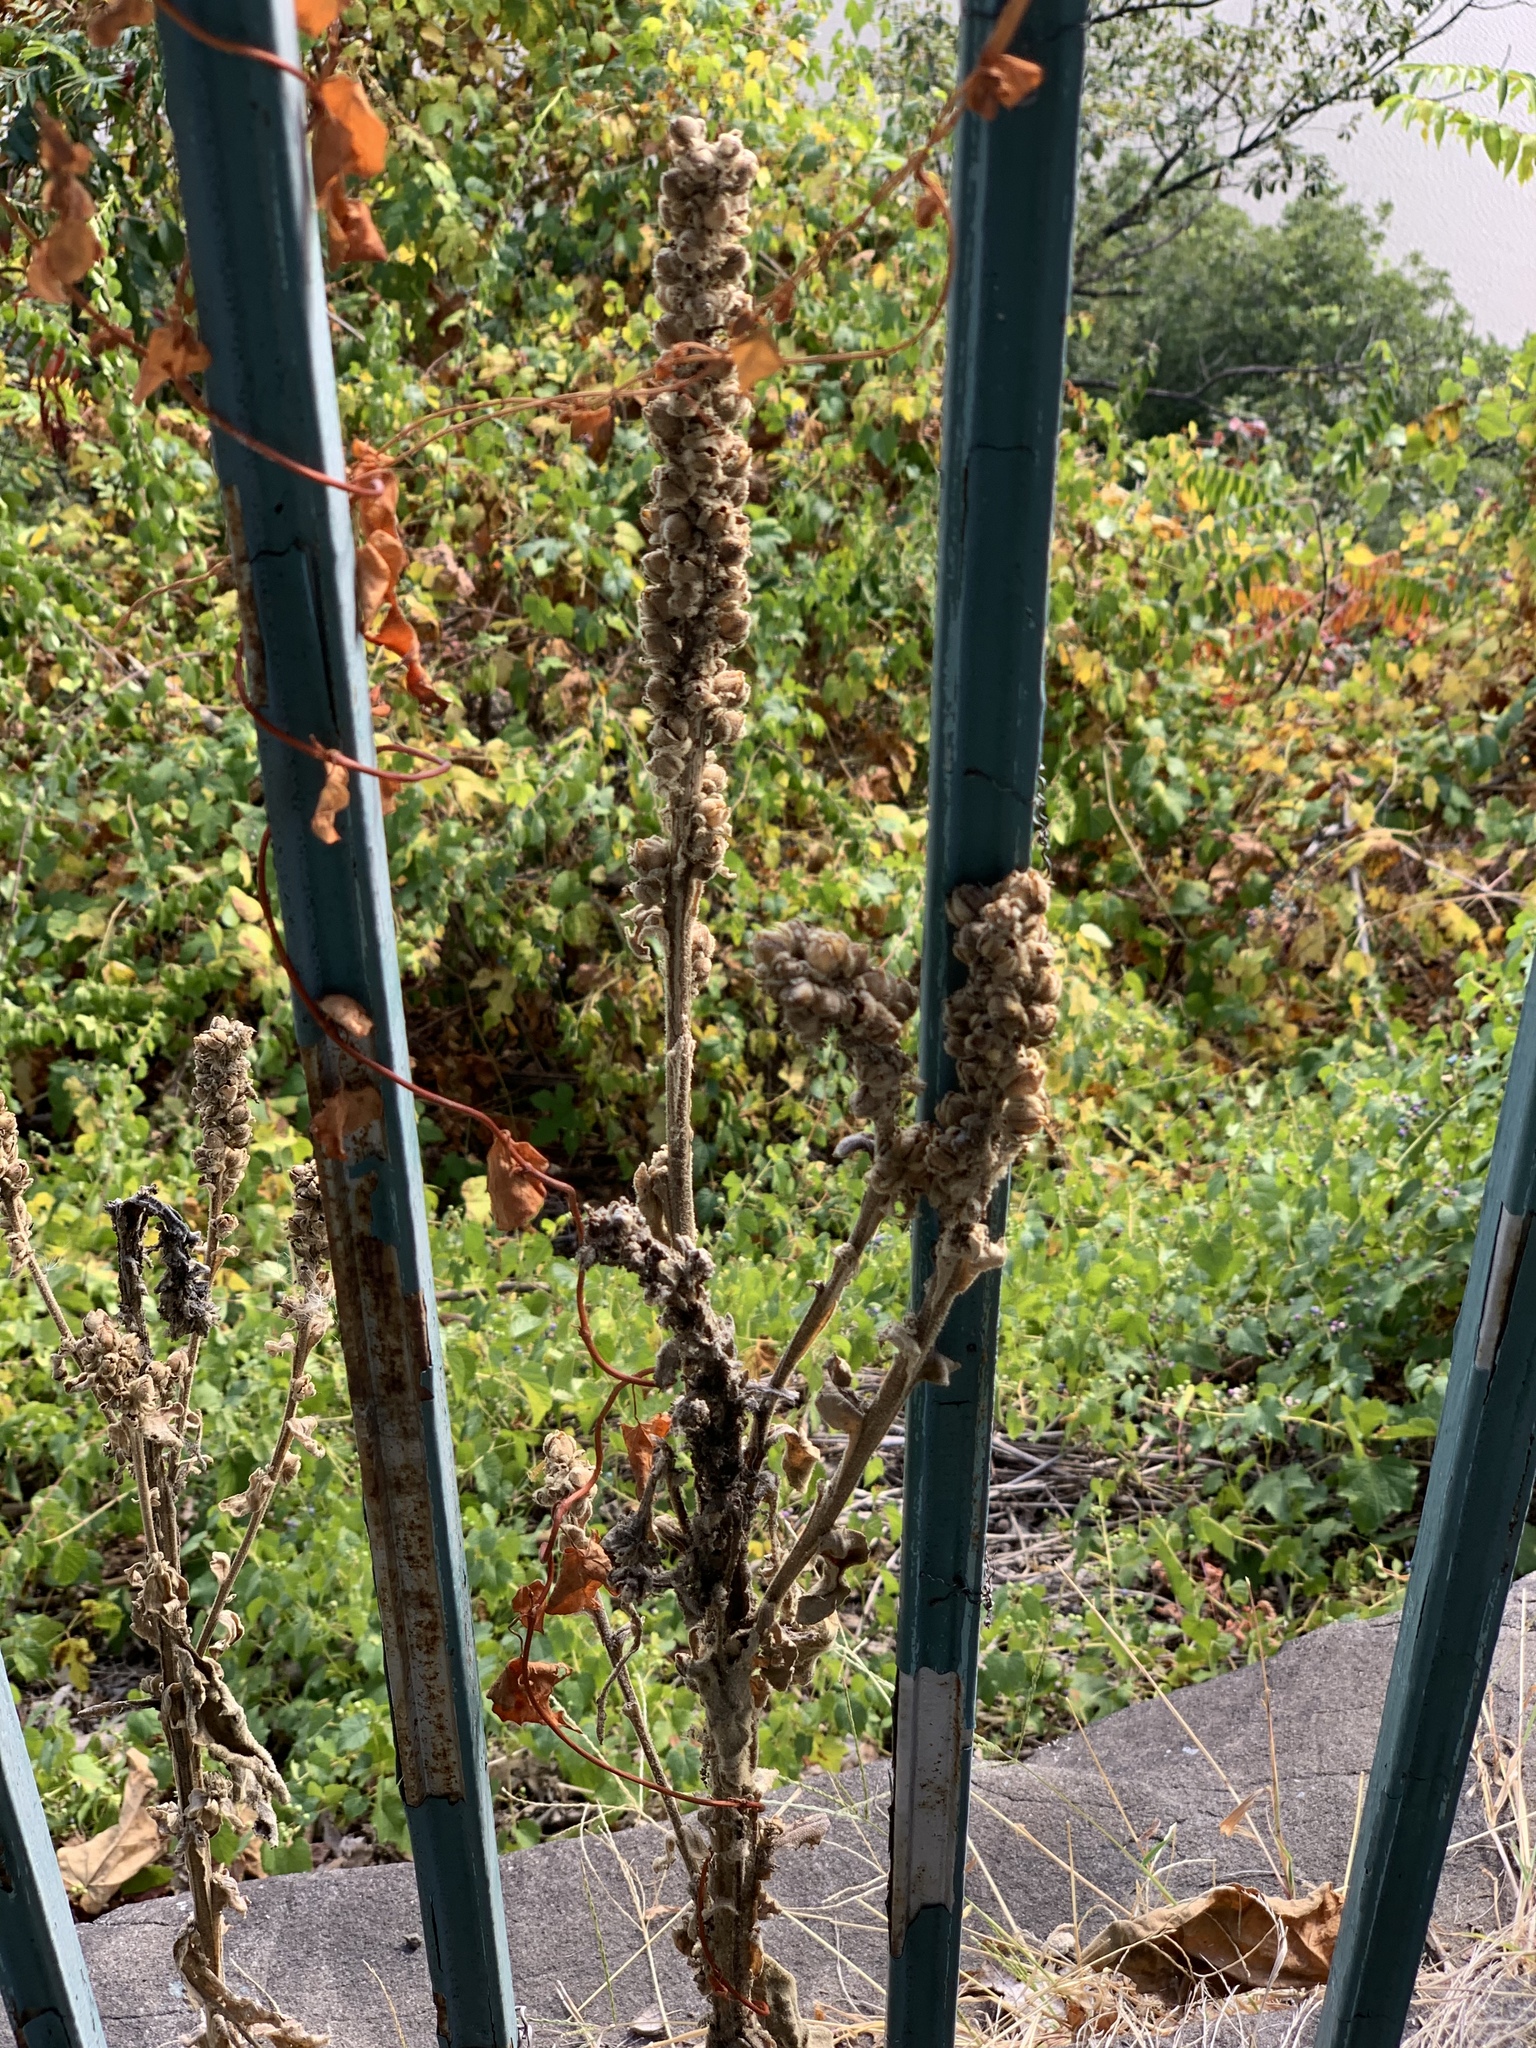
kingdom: Plantae
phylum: Tracheophyta
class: Magnoliopsida
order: Lamiales
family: Scrophulariaceae
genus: Verbascum
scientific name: Verbascum thapsus
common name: Common mullein
